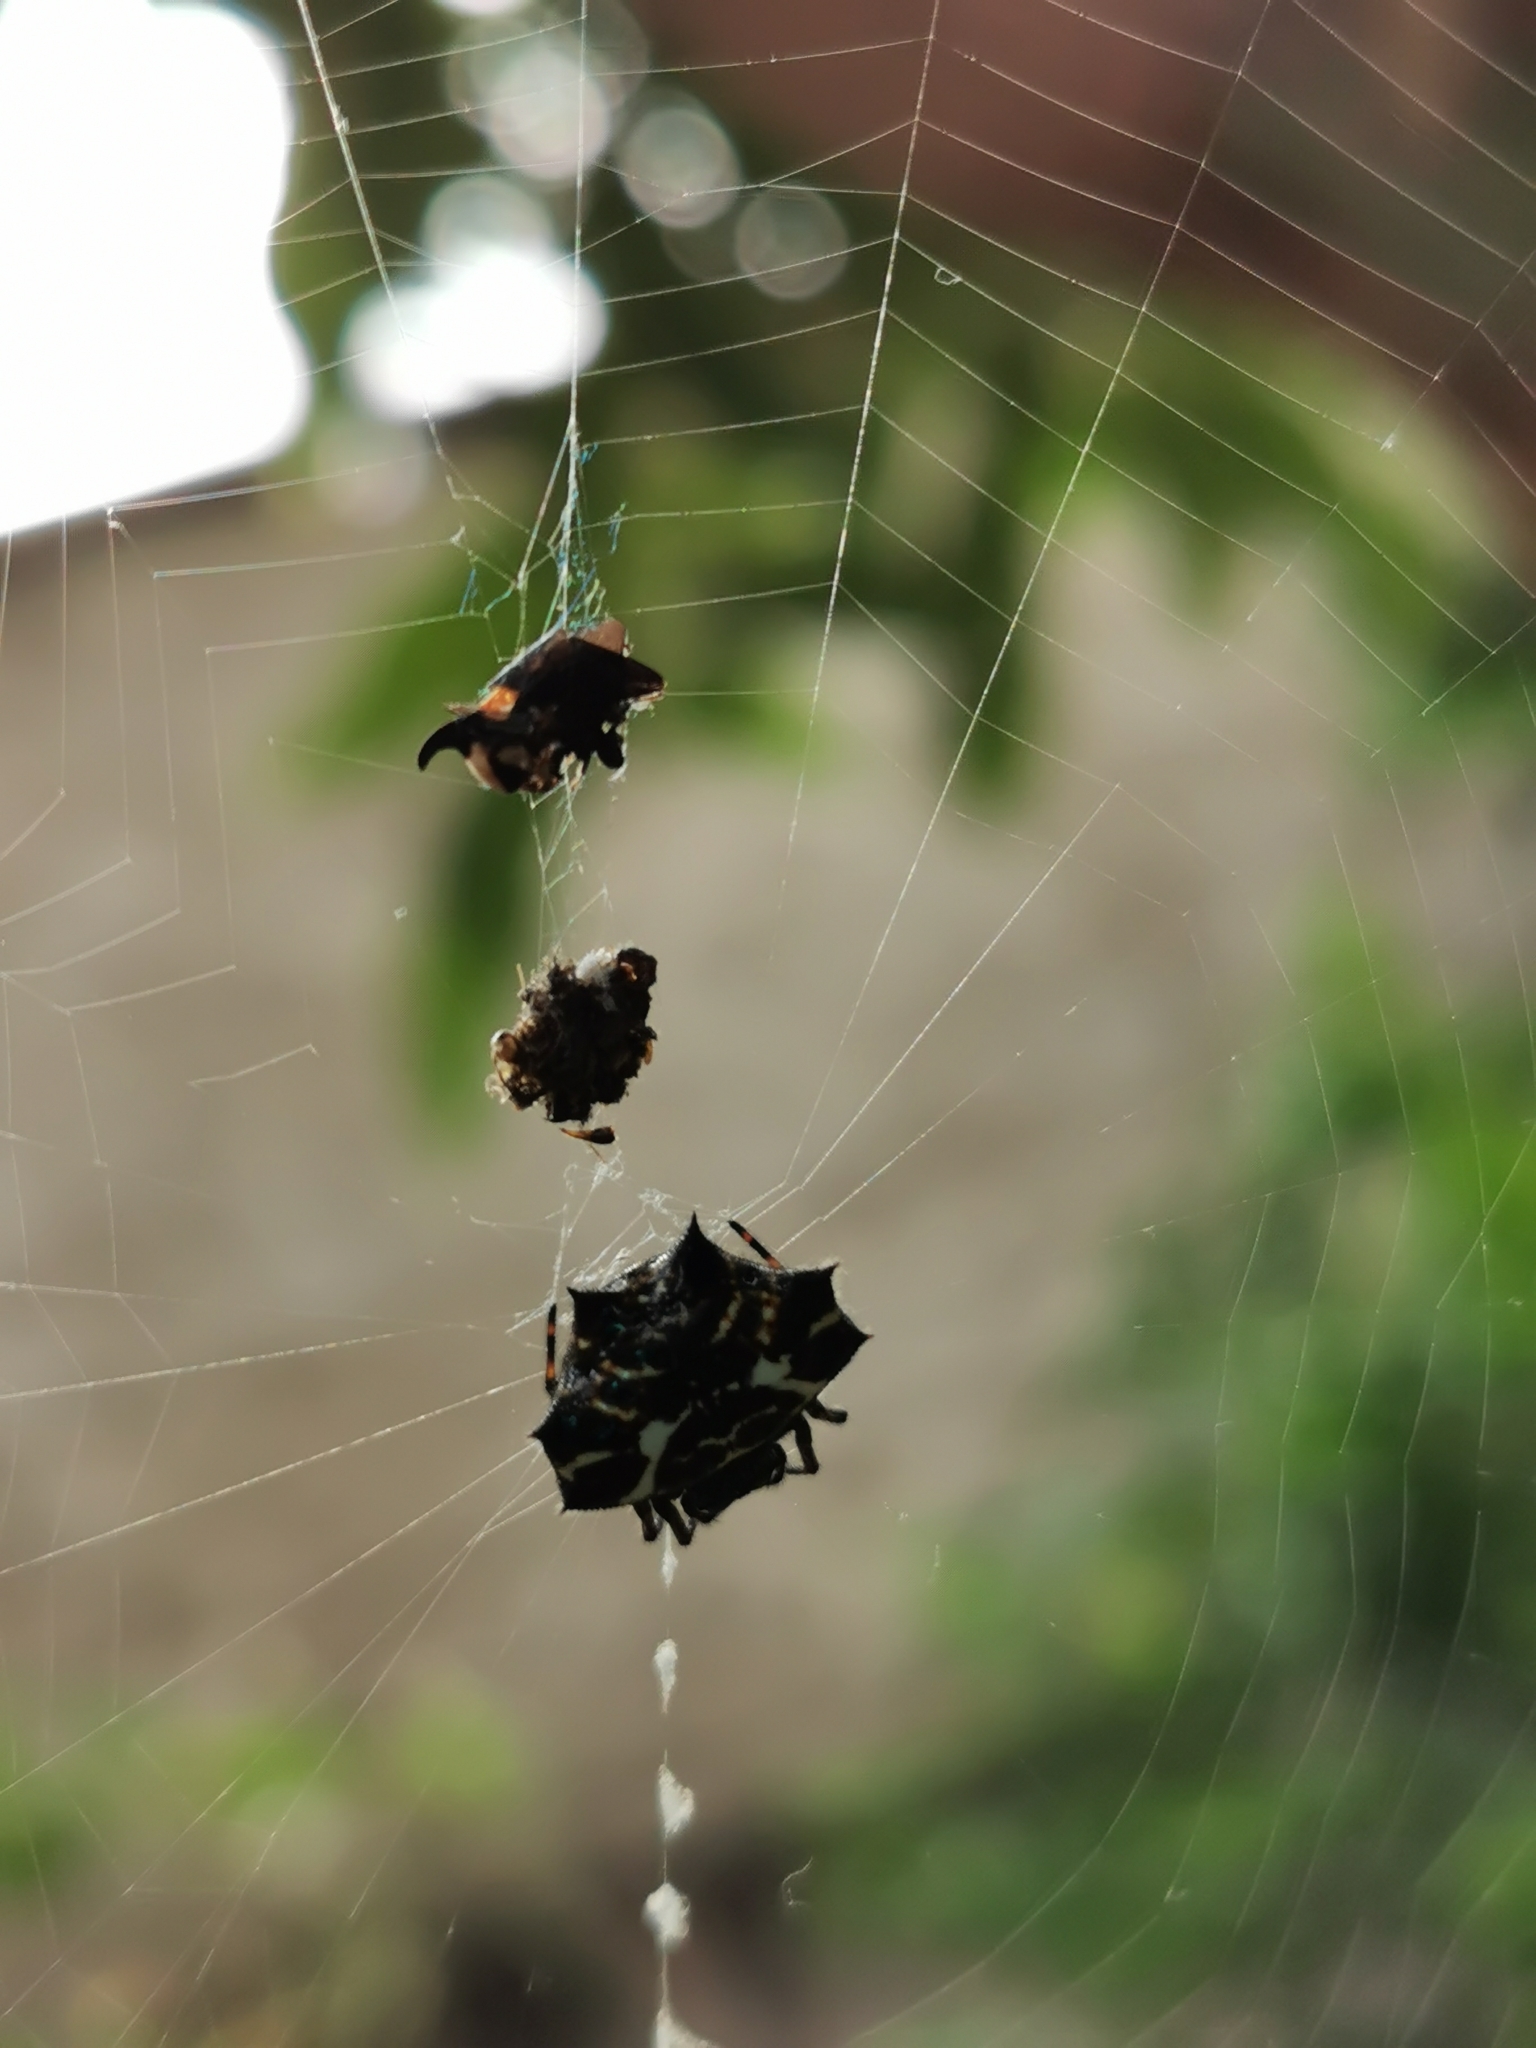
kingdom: Animalia
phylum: Arthropoda
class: Arachnida
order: Araneae
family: Araneidae
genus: Gasteracantha
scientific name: Gasteracantha cancriformis
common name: Orb weavers
